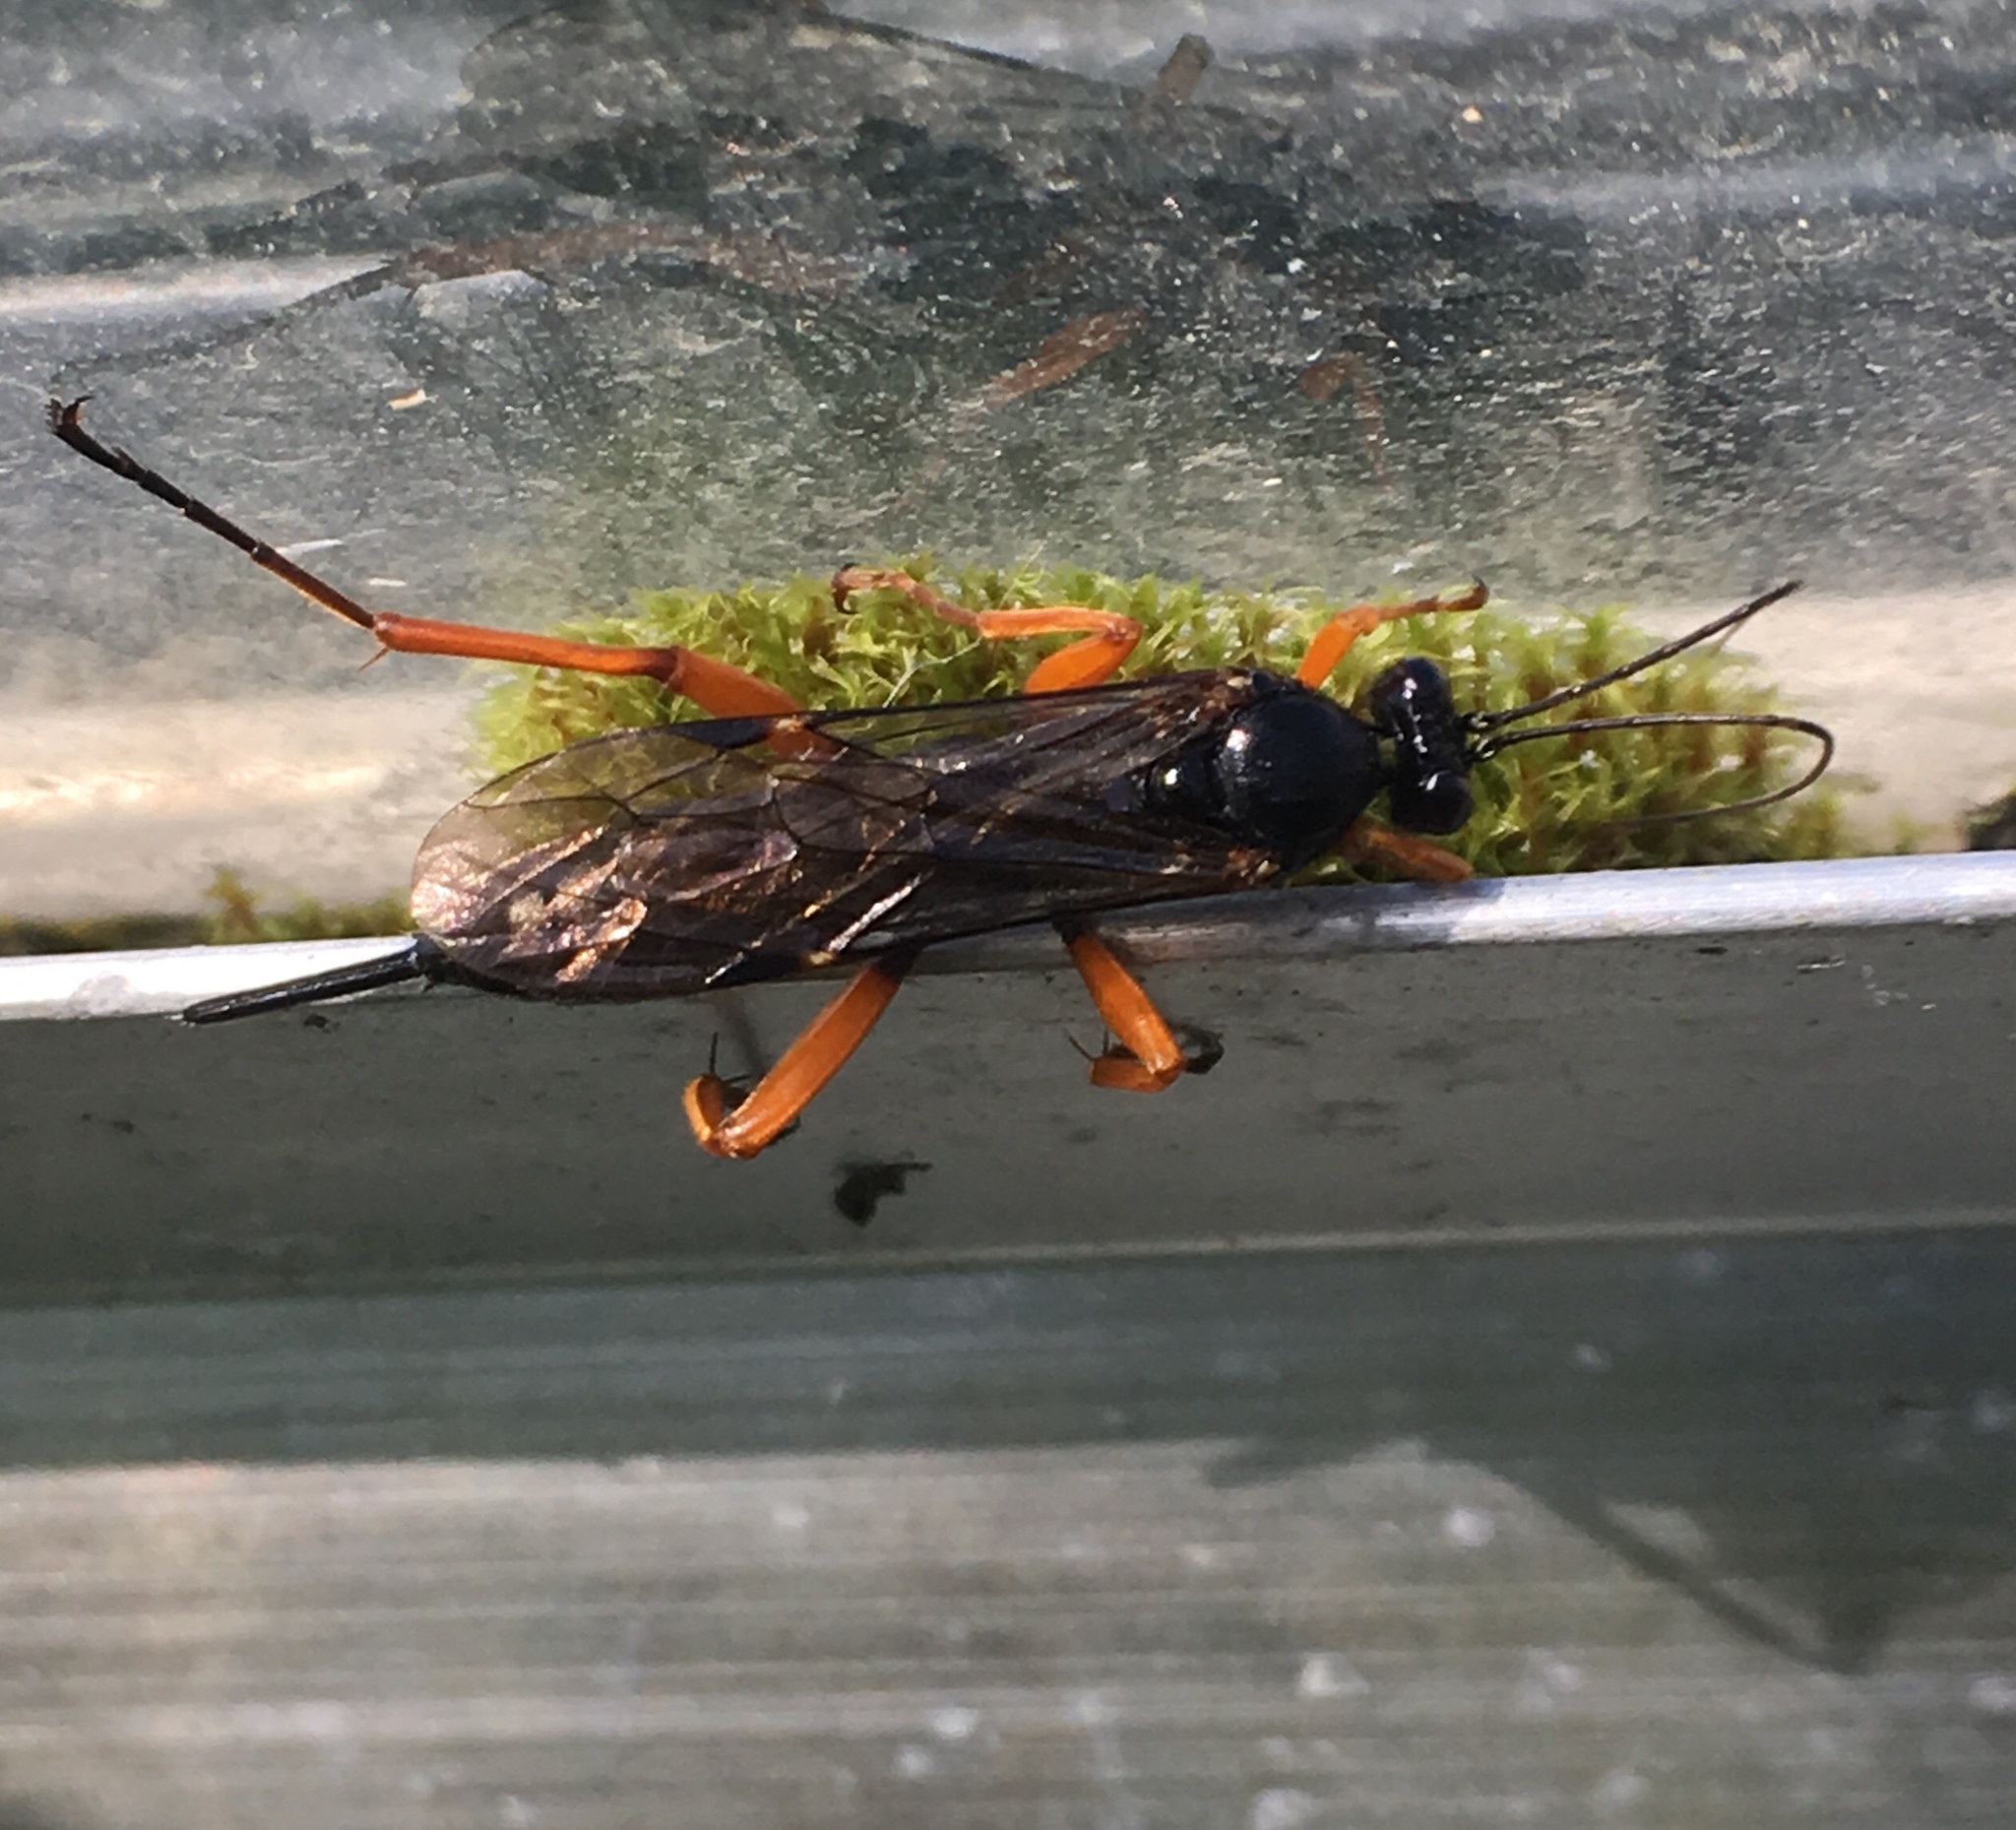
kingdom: Animalia
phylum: Arthropoda
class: Insecta
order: Hymenoptera
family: Ichneumonidae
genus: Pimpla
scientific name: Pimpla rufipes
